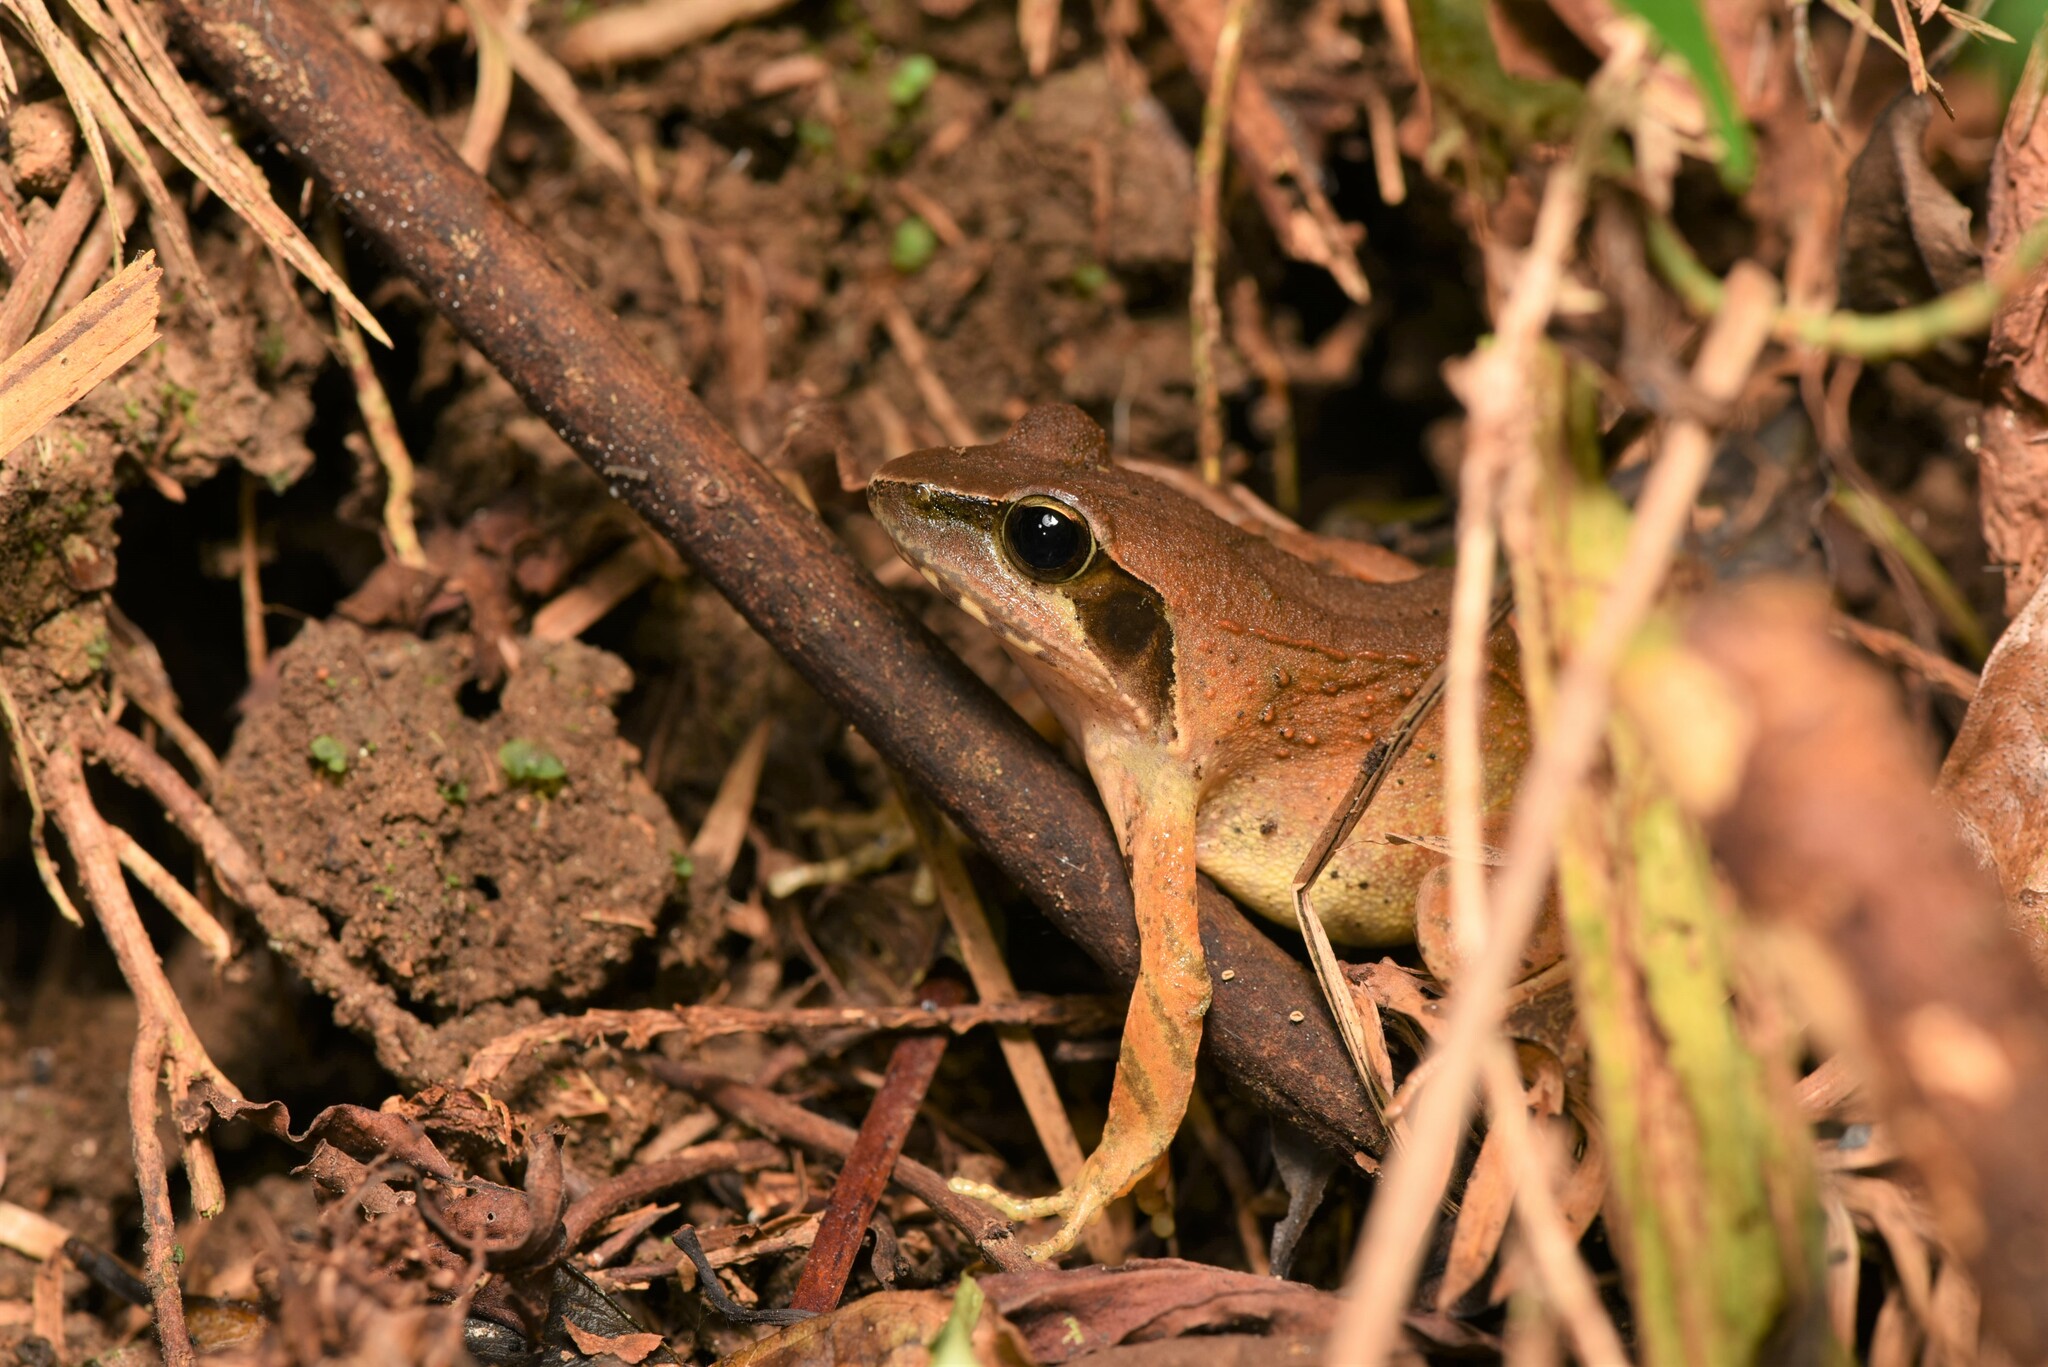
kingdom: Animalia
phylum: Chordata
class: Amphibia
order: Anura
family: Ranidae
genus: Rana
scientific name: Rana sauteri
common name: Kanshirei village frog
